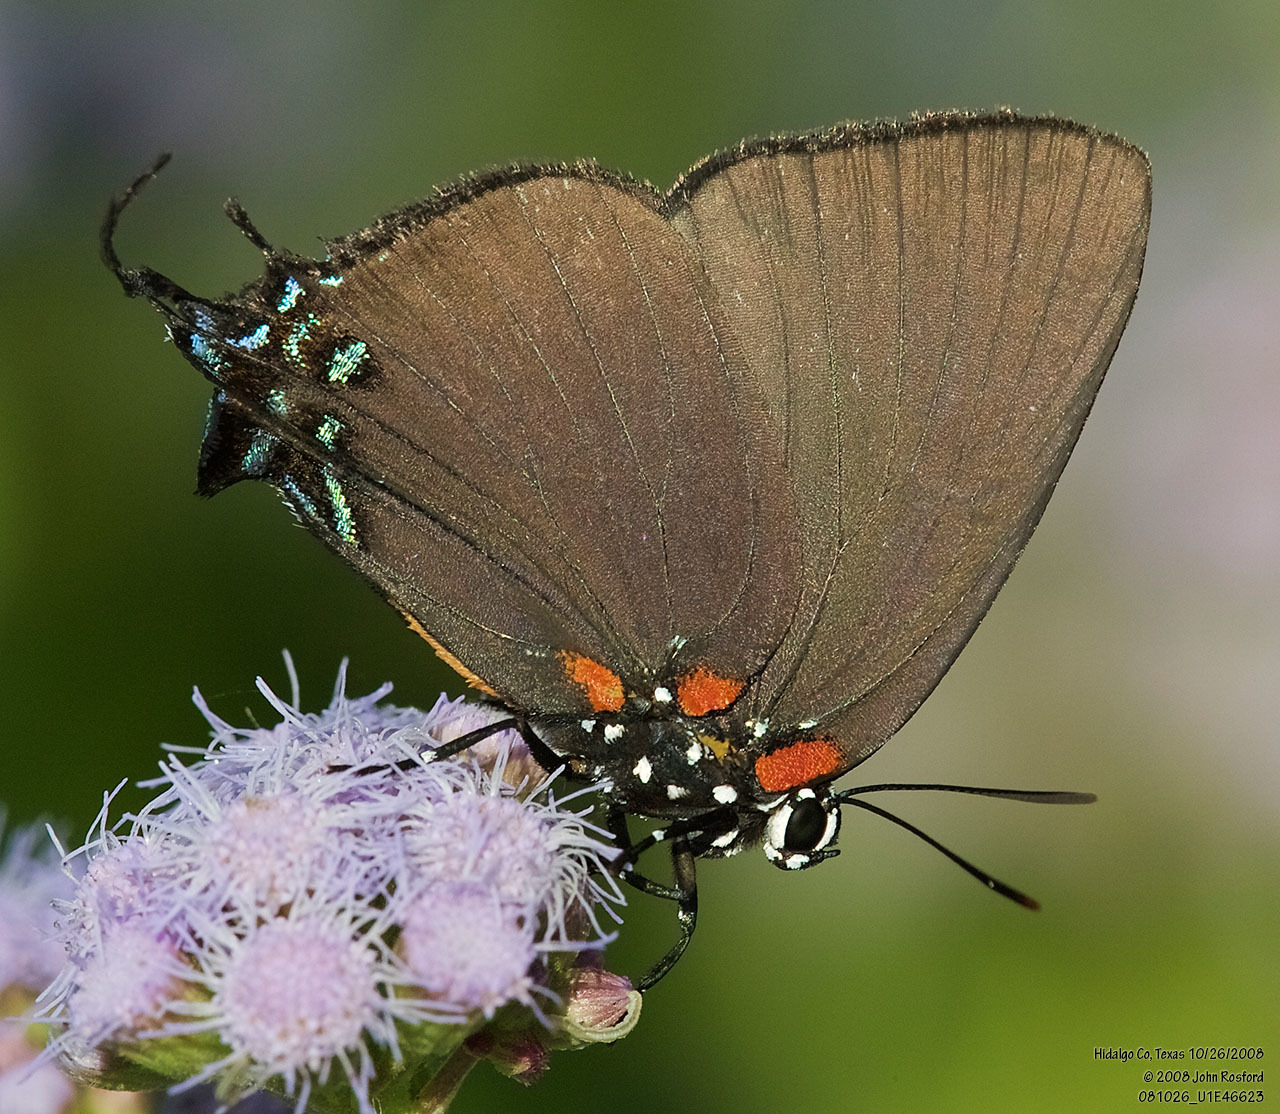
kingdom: Animalia
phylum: Arthropoda
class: Insecta
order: Lepidoptera
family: Lycaenidae
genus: Atlides
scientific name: Atlides halesus
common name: Great purple hairstreak
